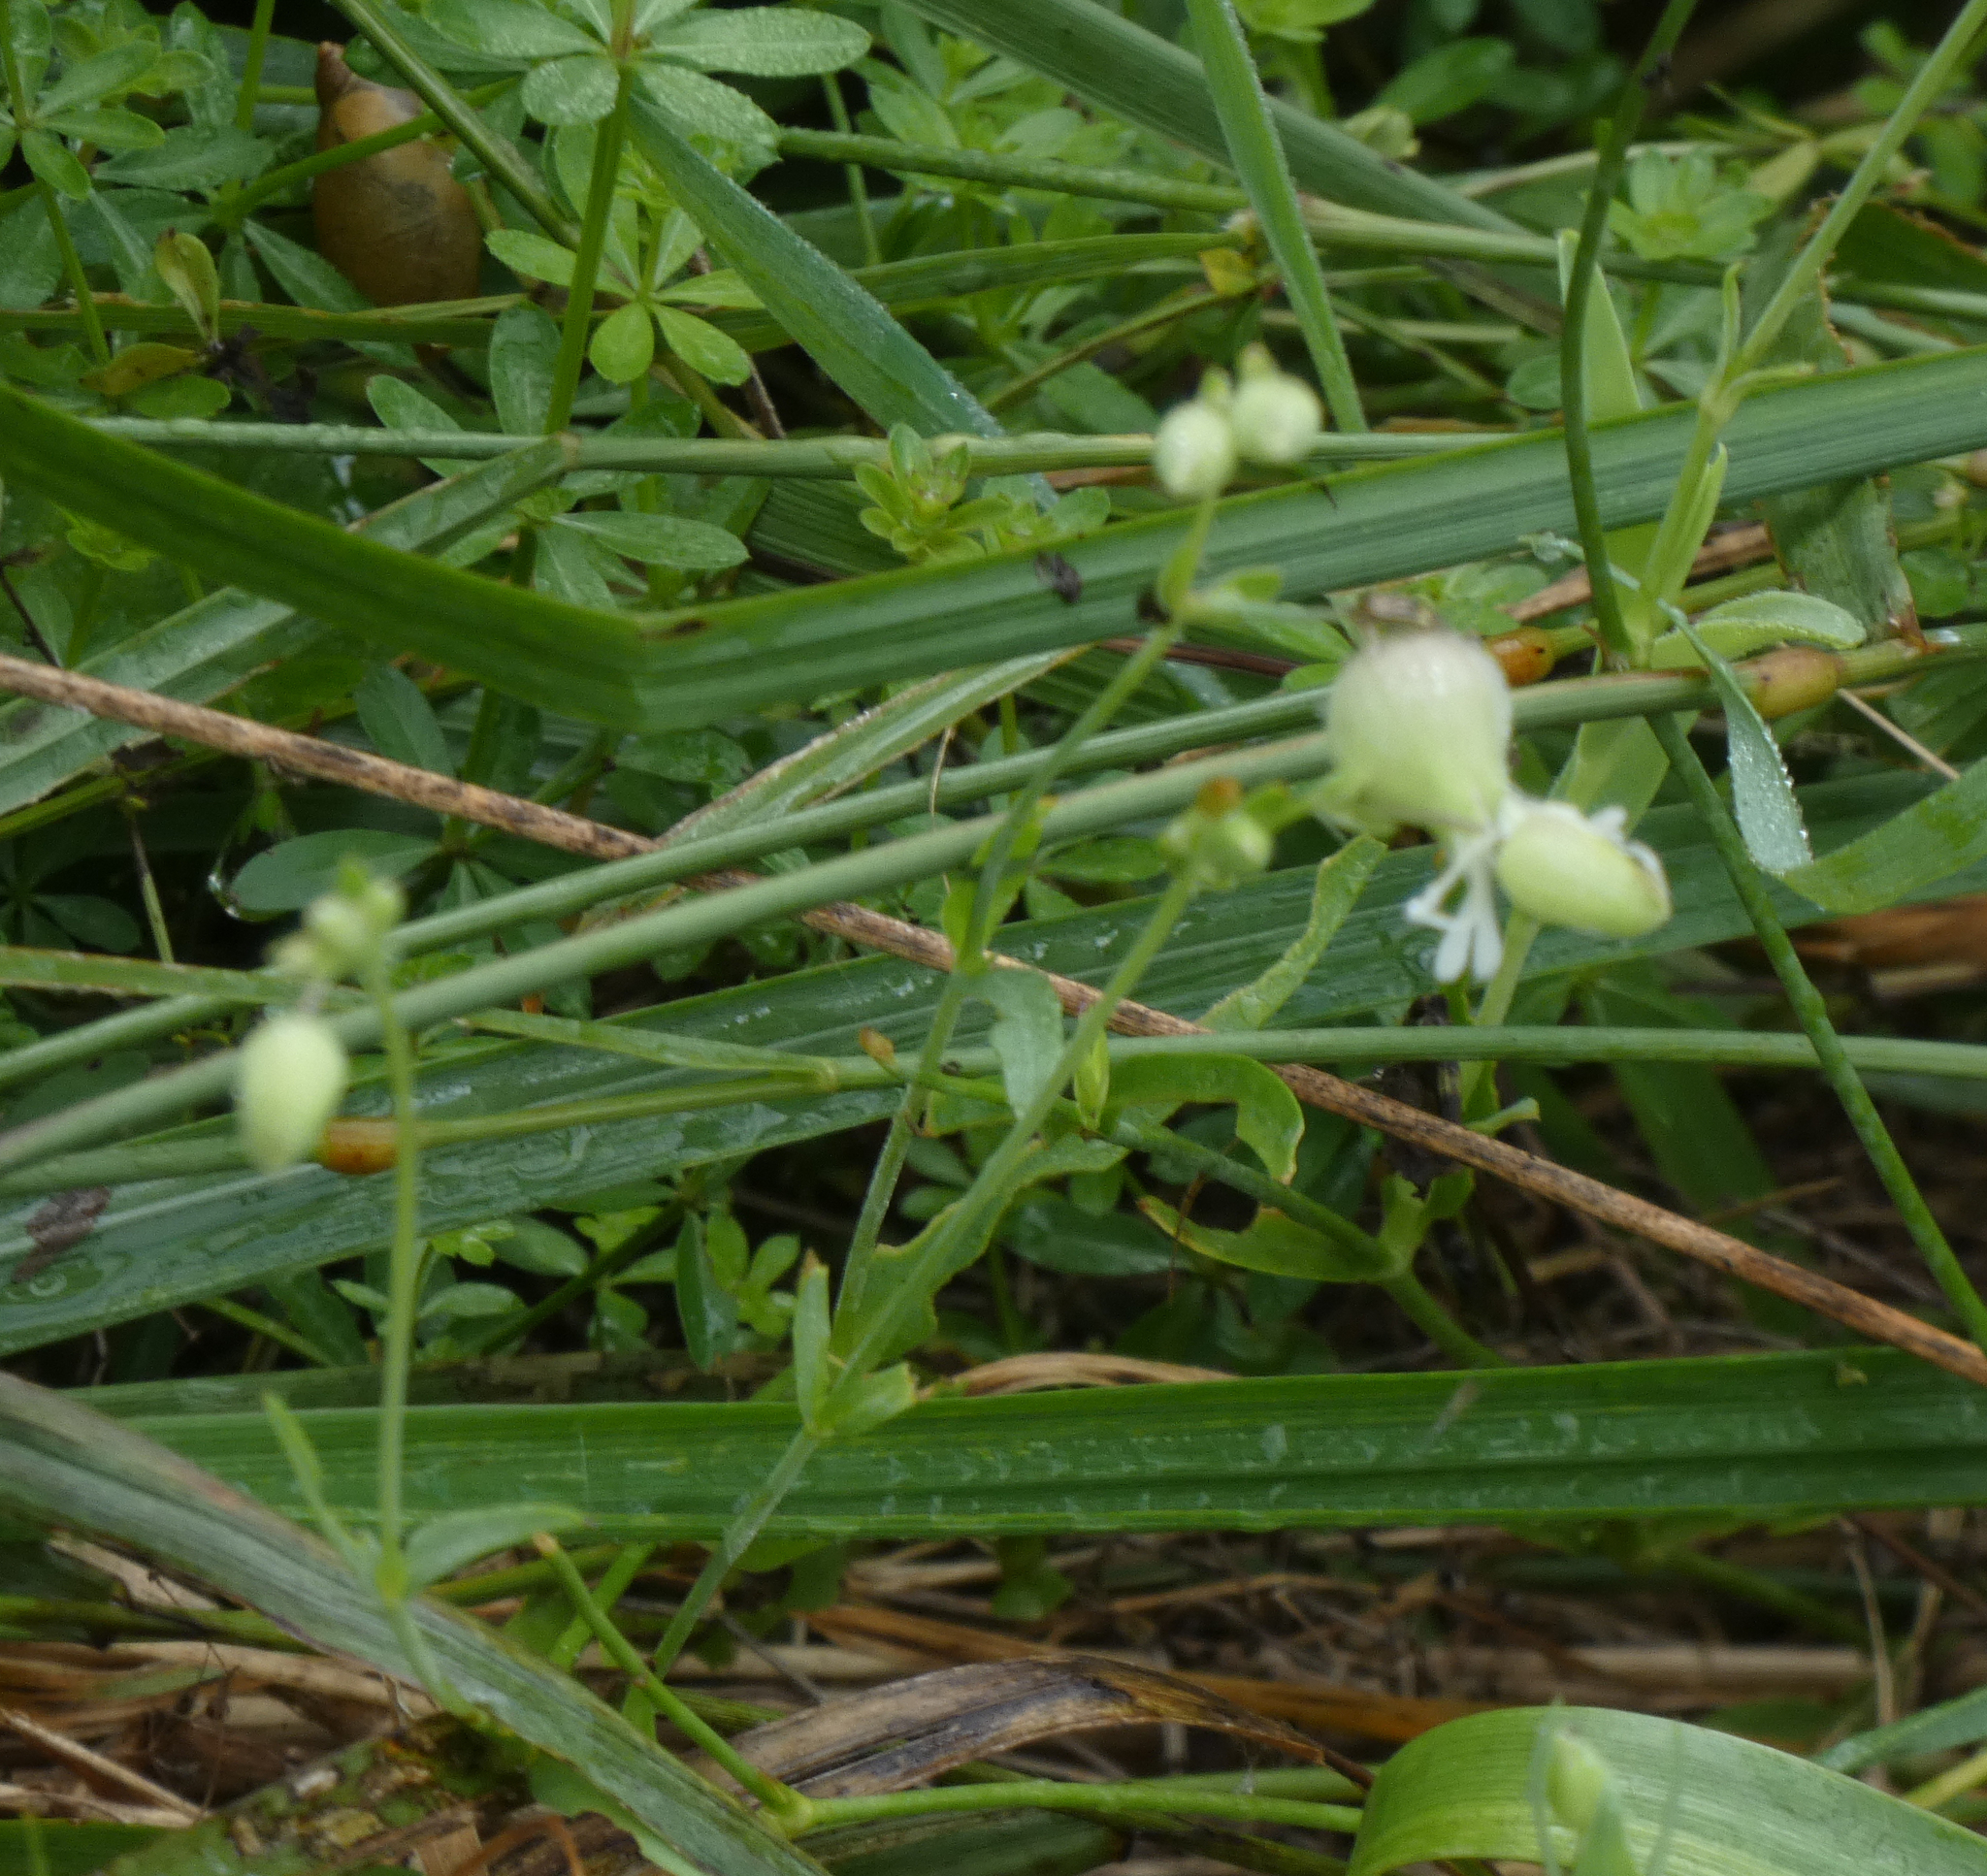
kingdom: Plantae
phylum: Tracheophyta
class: Magnoliopsida
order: Caryophyllales
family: Caryophyllaceae
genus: Silene
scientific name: Silene vulgaris
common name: Bladder campion
